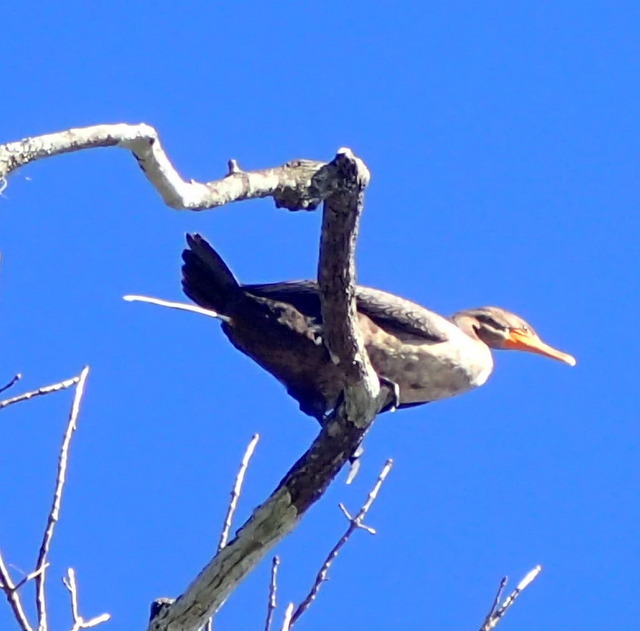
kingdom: Animalia
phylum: Chordata
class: Aves
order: Suliformes
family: Phalacrocoracidae
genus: Phalacrocorax
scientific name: Phalacrocorax auritus
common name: Double-crested cormorant
